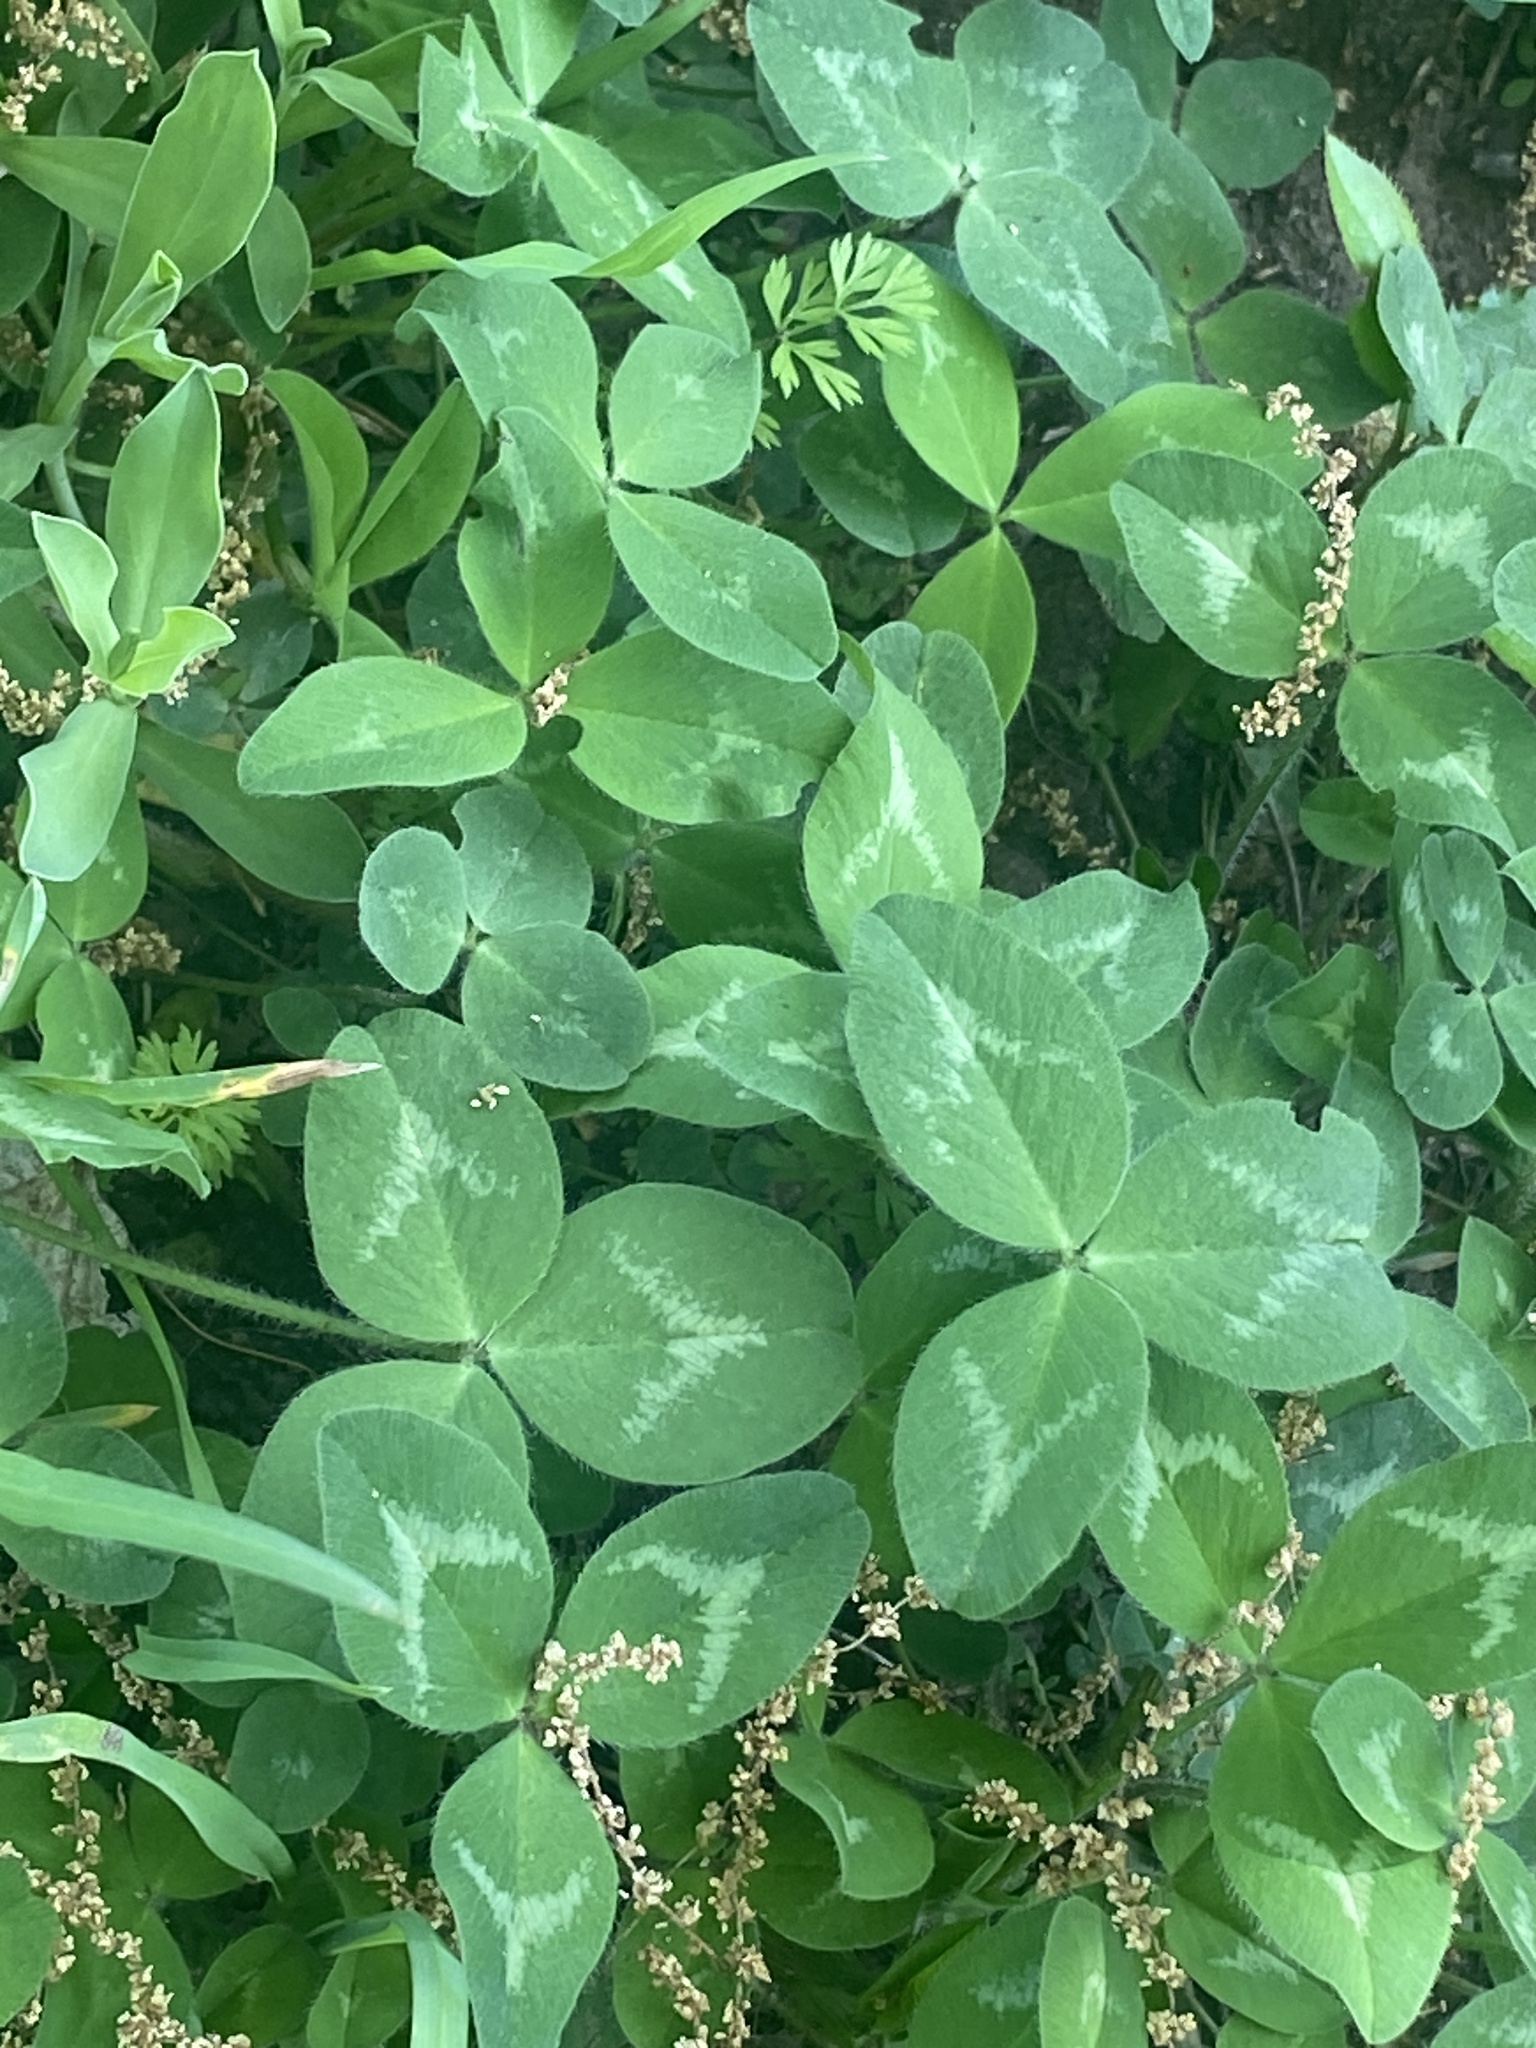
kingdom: Plantae
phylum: Tracheophyta
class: Magnoliopsida
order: Fabales
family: Fabaceae
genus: Trifolium
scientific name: Trifolium pratense
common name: Red clover
